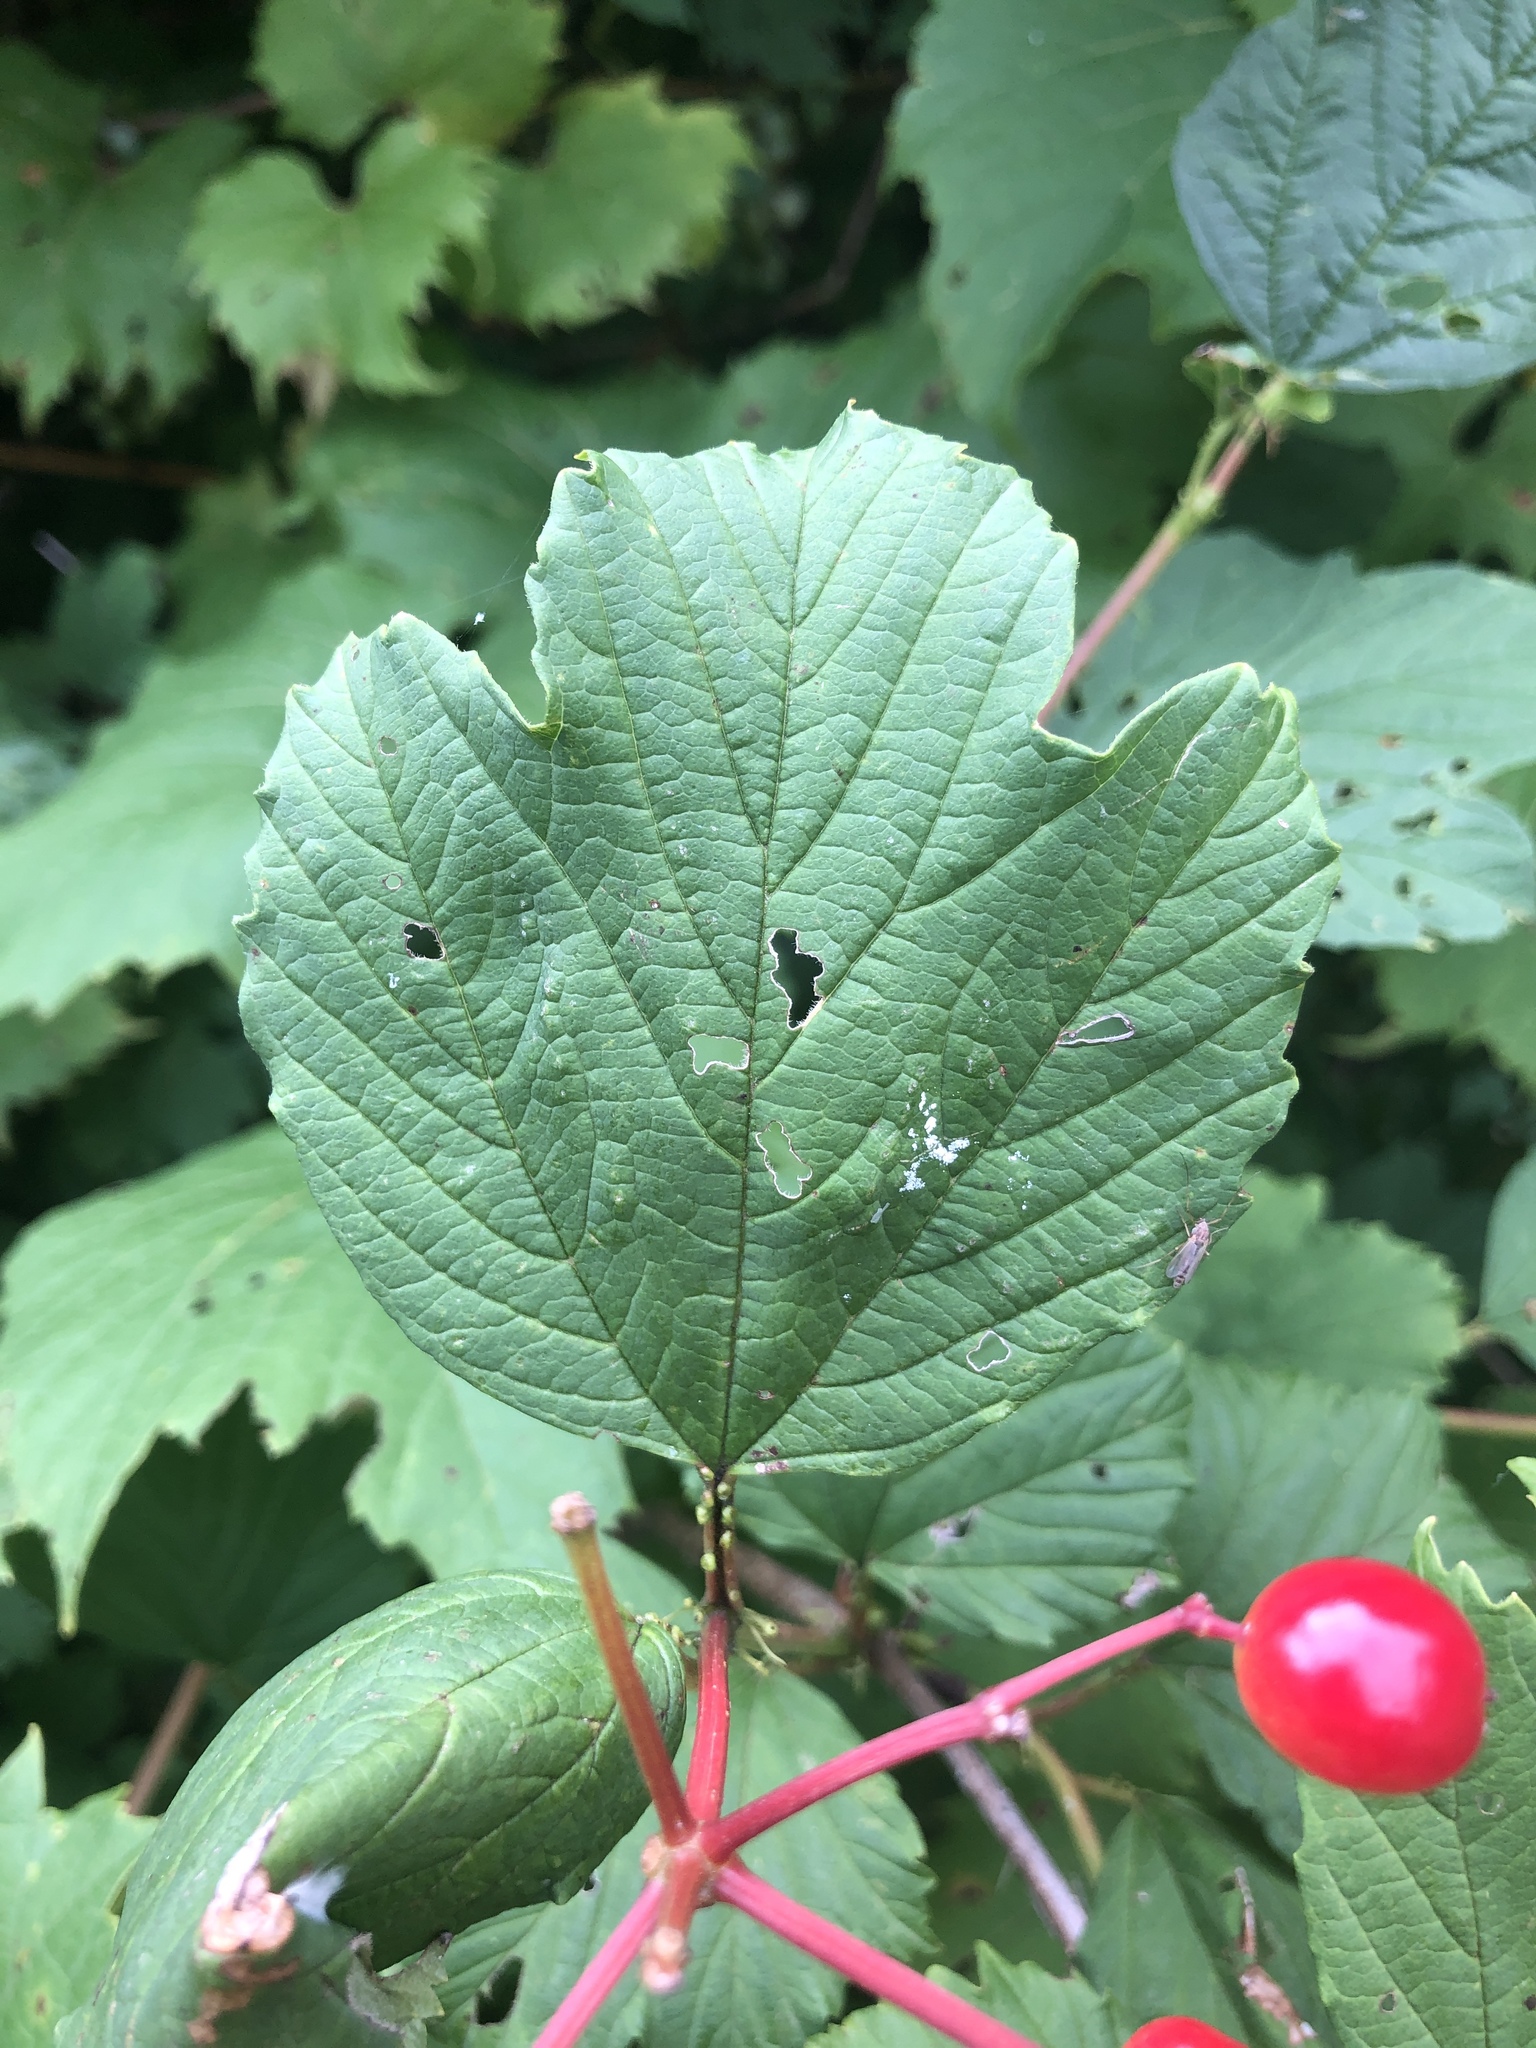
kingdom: Plantae
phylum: Tracheophyta
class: Magnoliopsida
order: Dipsacales
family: Viburnaceae
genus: Viburnum
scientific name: Viburnum opulus
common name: Guelder-rose
